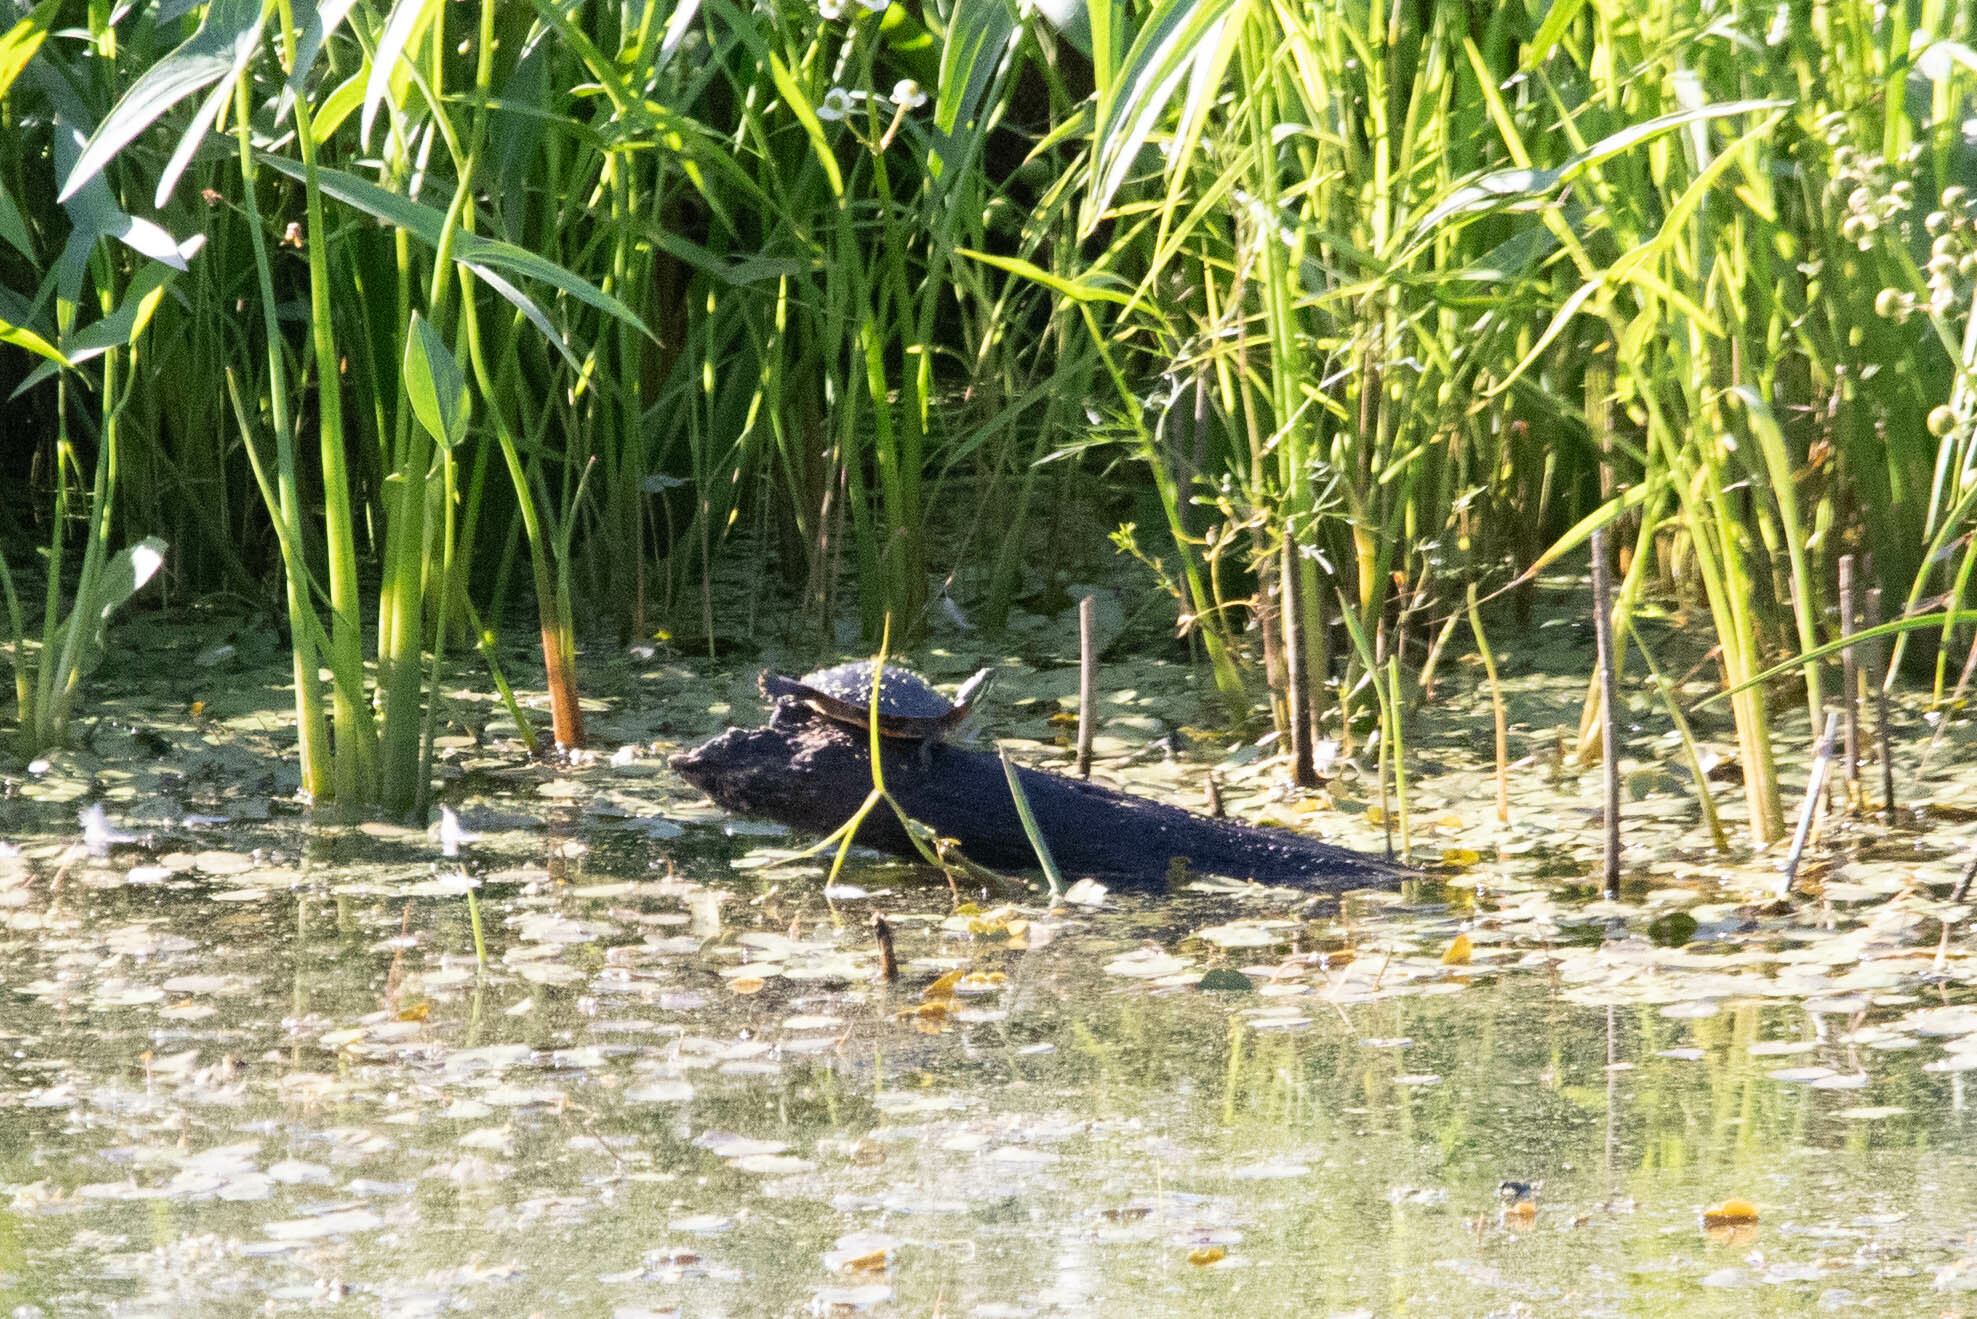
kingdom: Animalia
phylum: Chordata
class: Testudines
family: Emydidae
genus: Chrysemys
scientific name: Chrysemys picta
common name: Painted turtle
